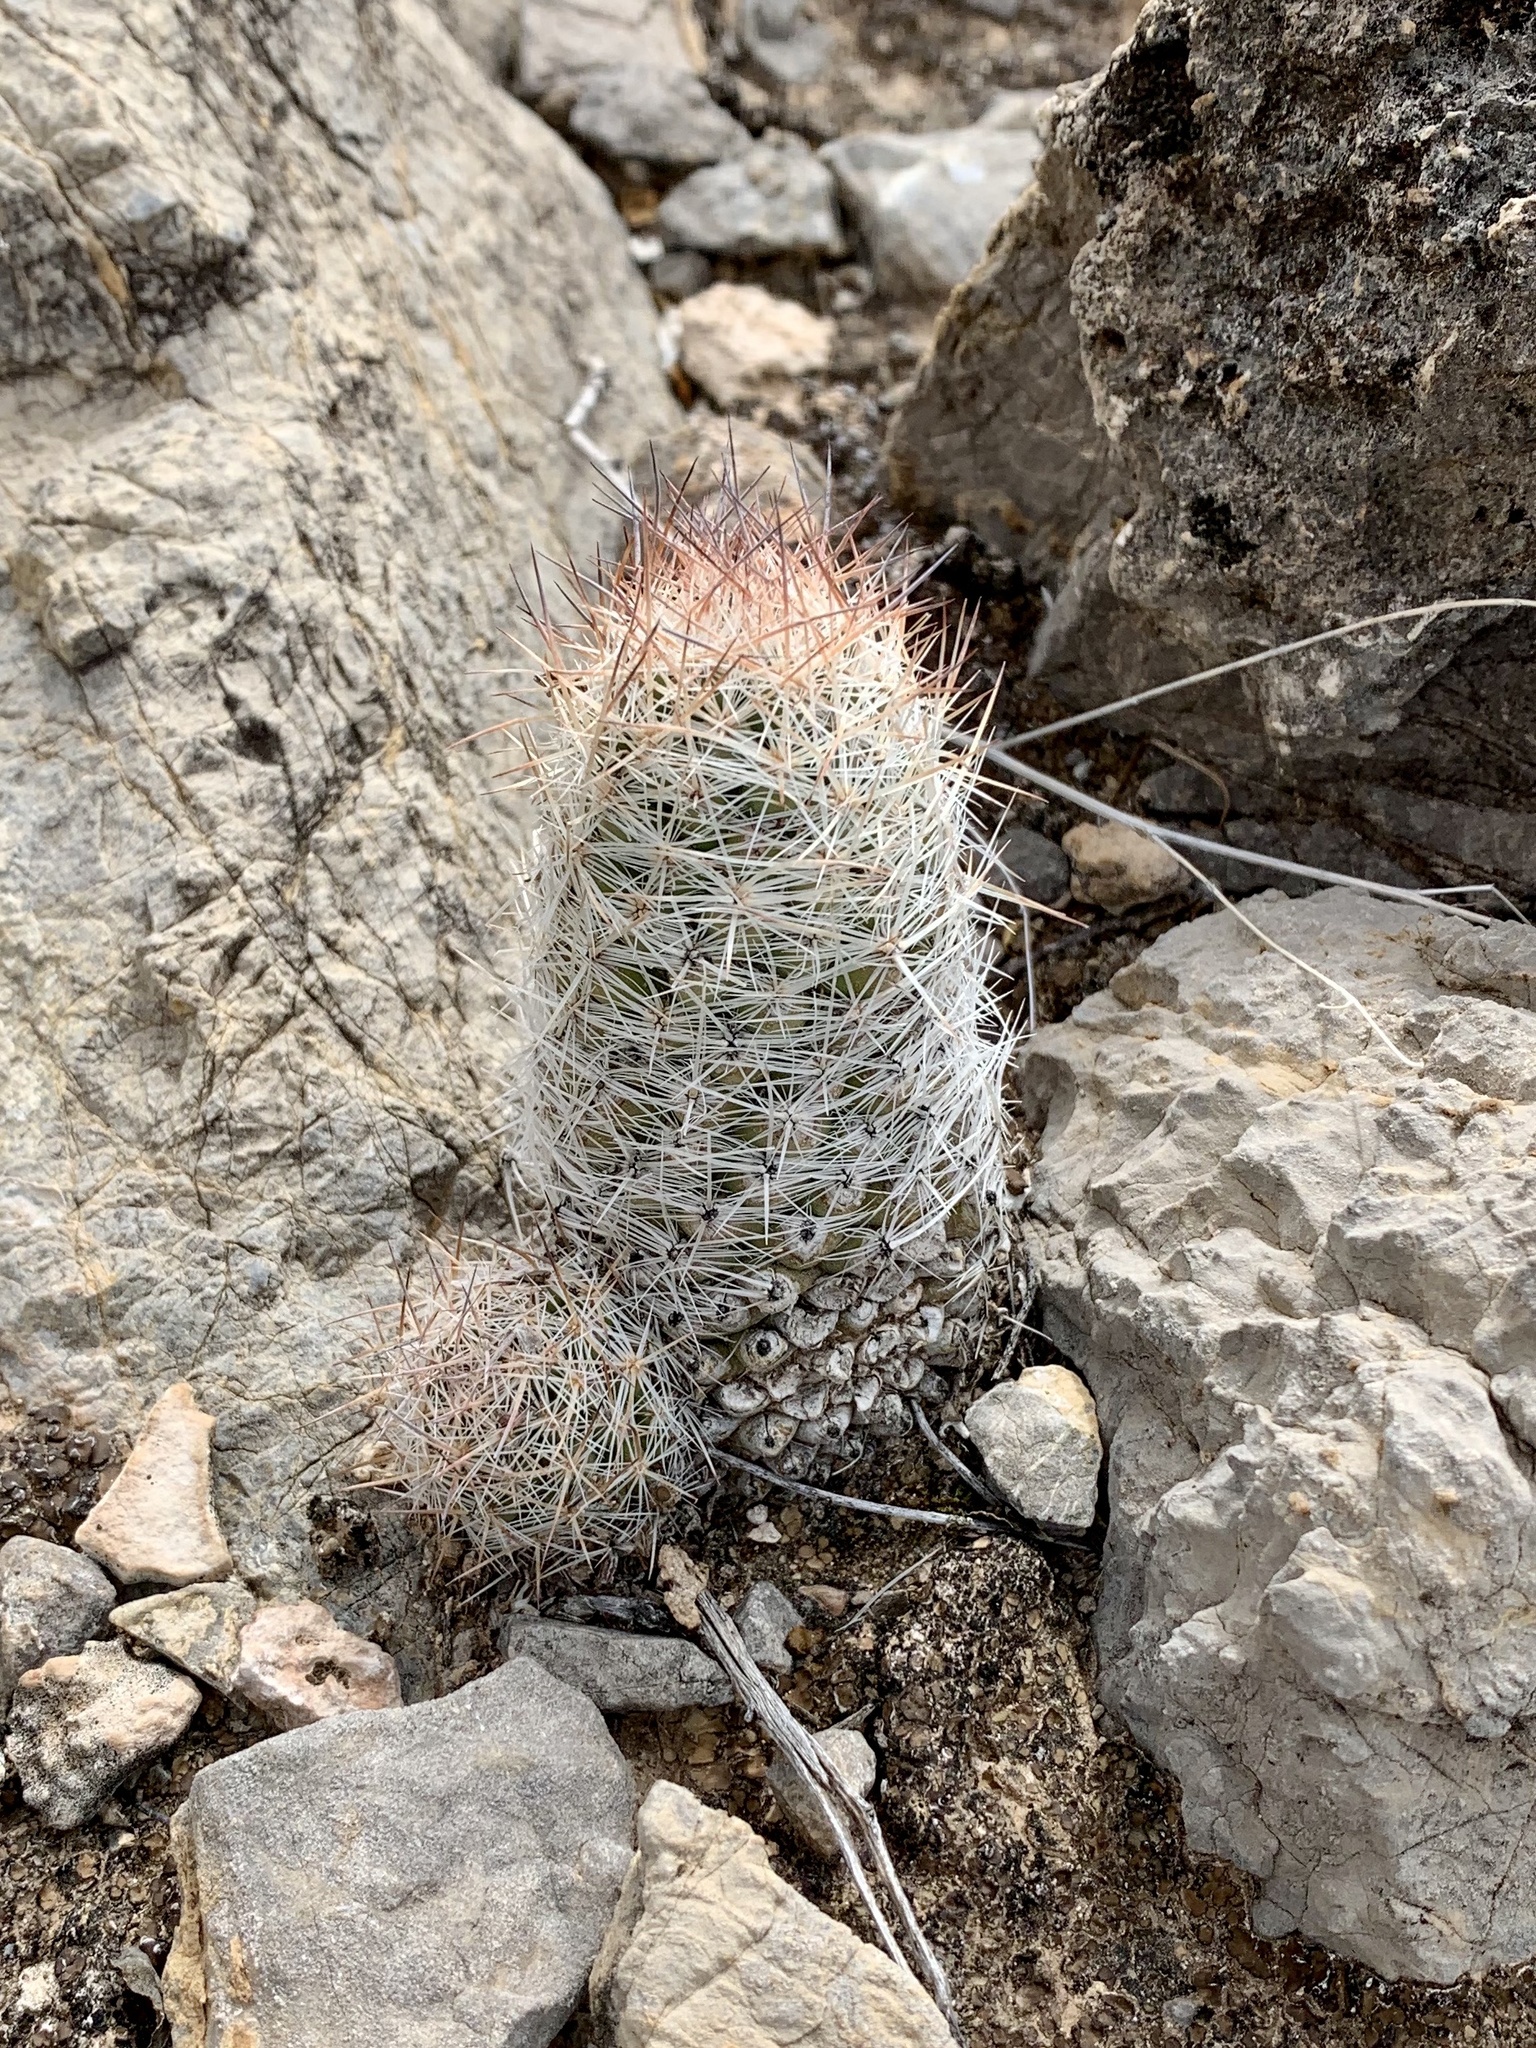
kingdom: Plantae
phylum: Tracheophyta
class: Magnoliopsida
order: Caryophyllales
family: Cactaceae
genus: Pelecyphora
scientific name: Pelecyphora tuberculosa
